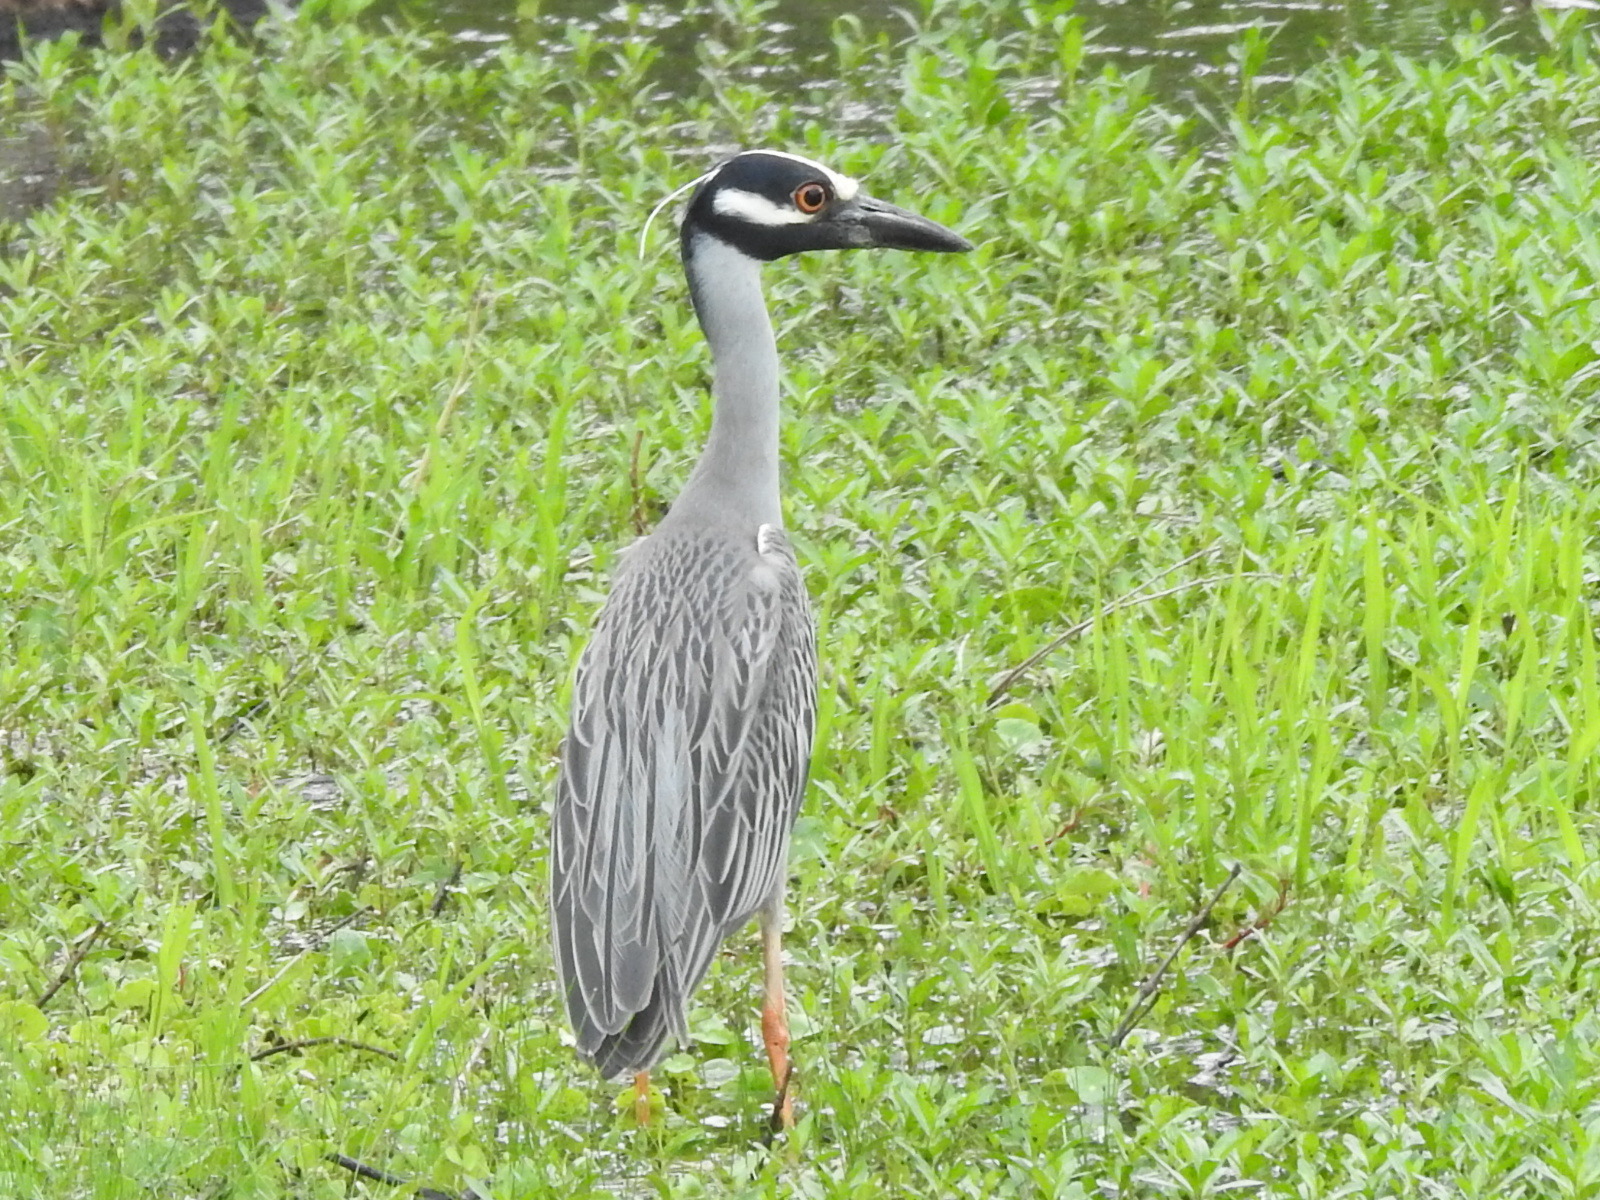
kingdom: Animalia
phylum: Chordata
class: Aves
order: Pelecaniformes
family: Ardeidae
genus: Nyctanassa
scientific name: Nyctanassa violacea
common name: Yellow-crowned night heron
